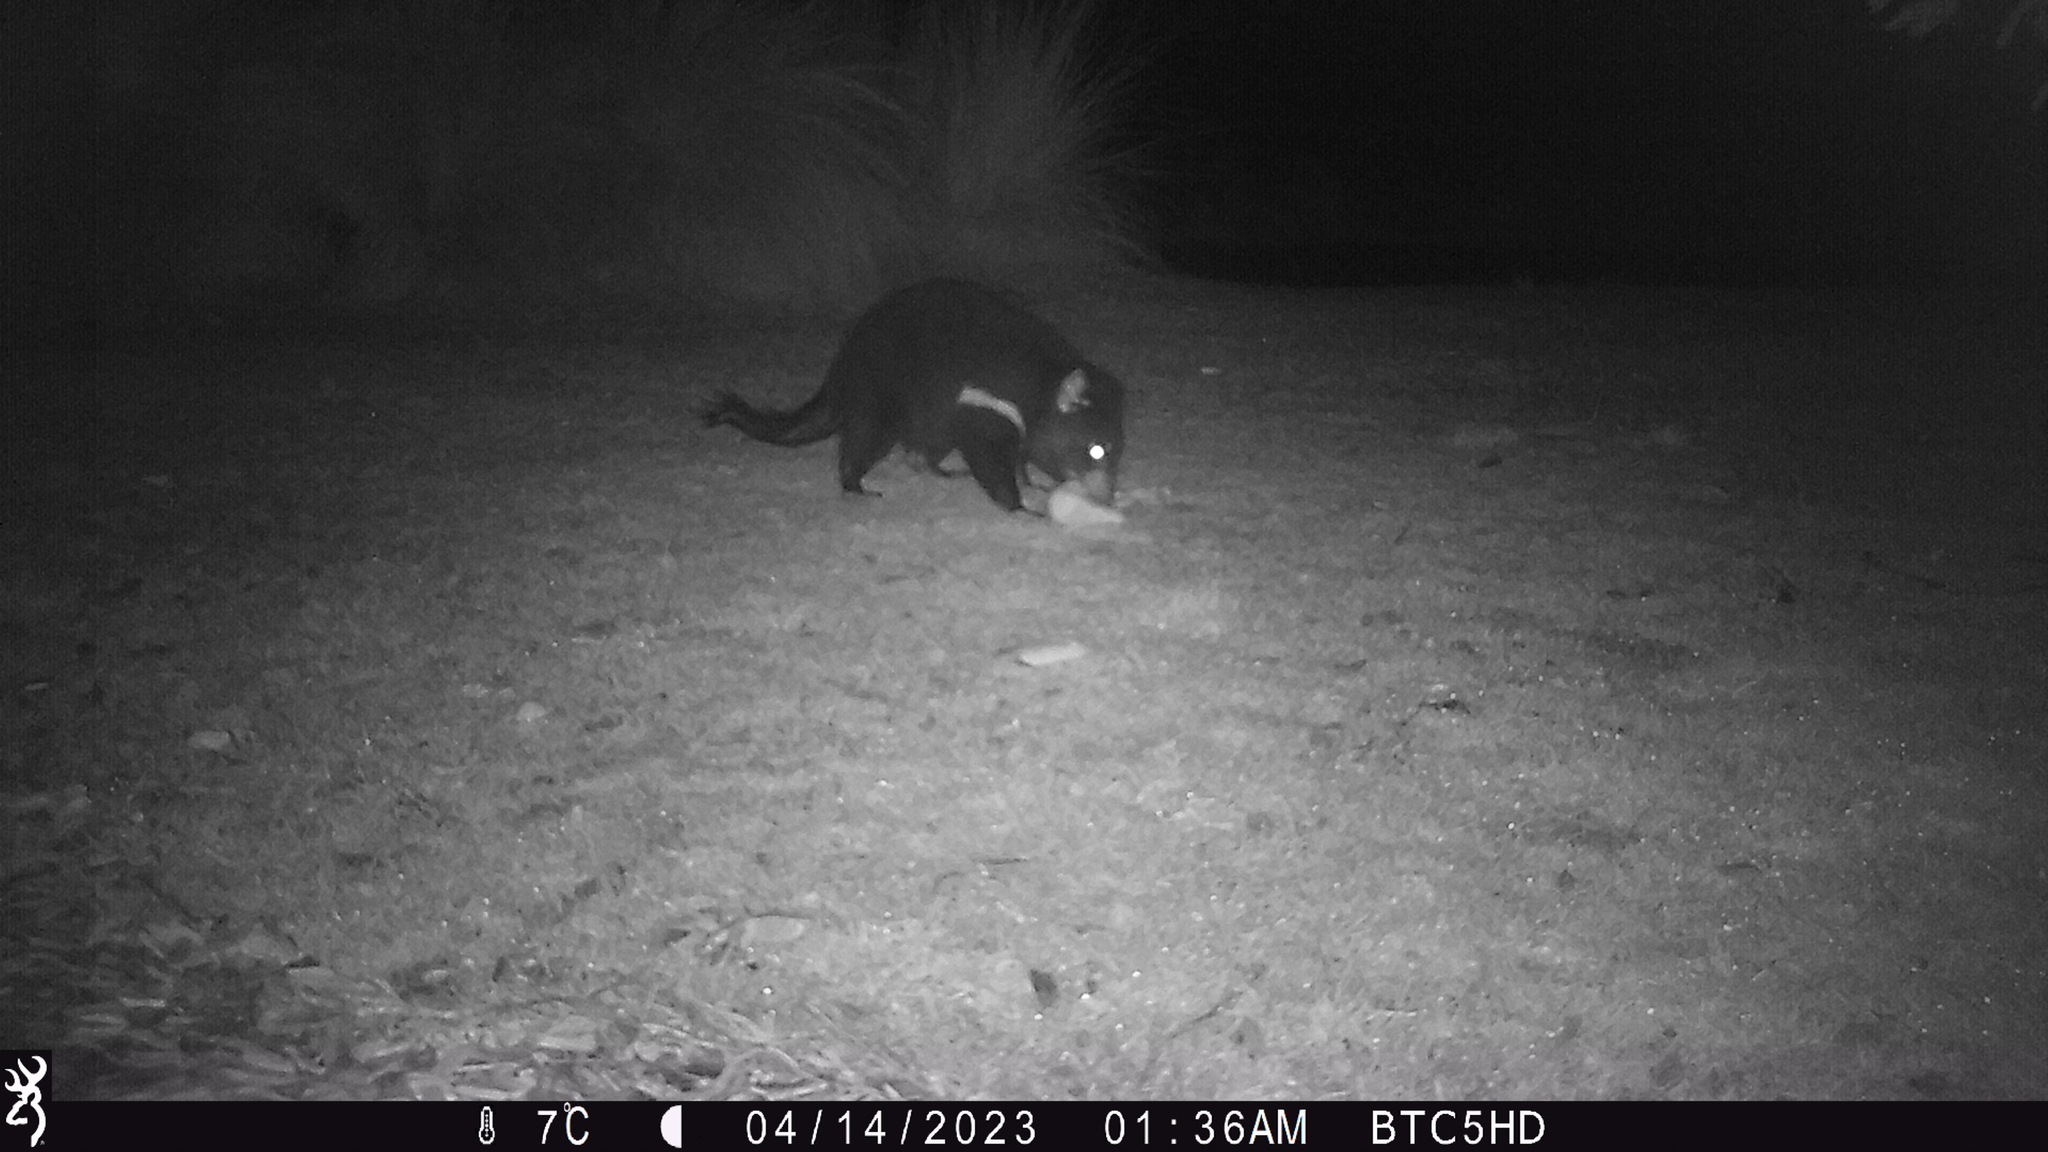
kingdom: Animalia
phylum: Chordata
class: Mammalia
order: Dasyuromorphia
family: Dasyuridae
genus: Sarcophilus
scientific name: Sarcophilus harrisii
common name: Tasmanian devil
